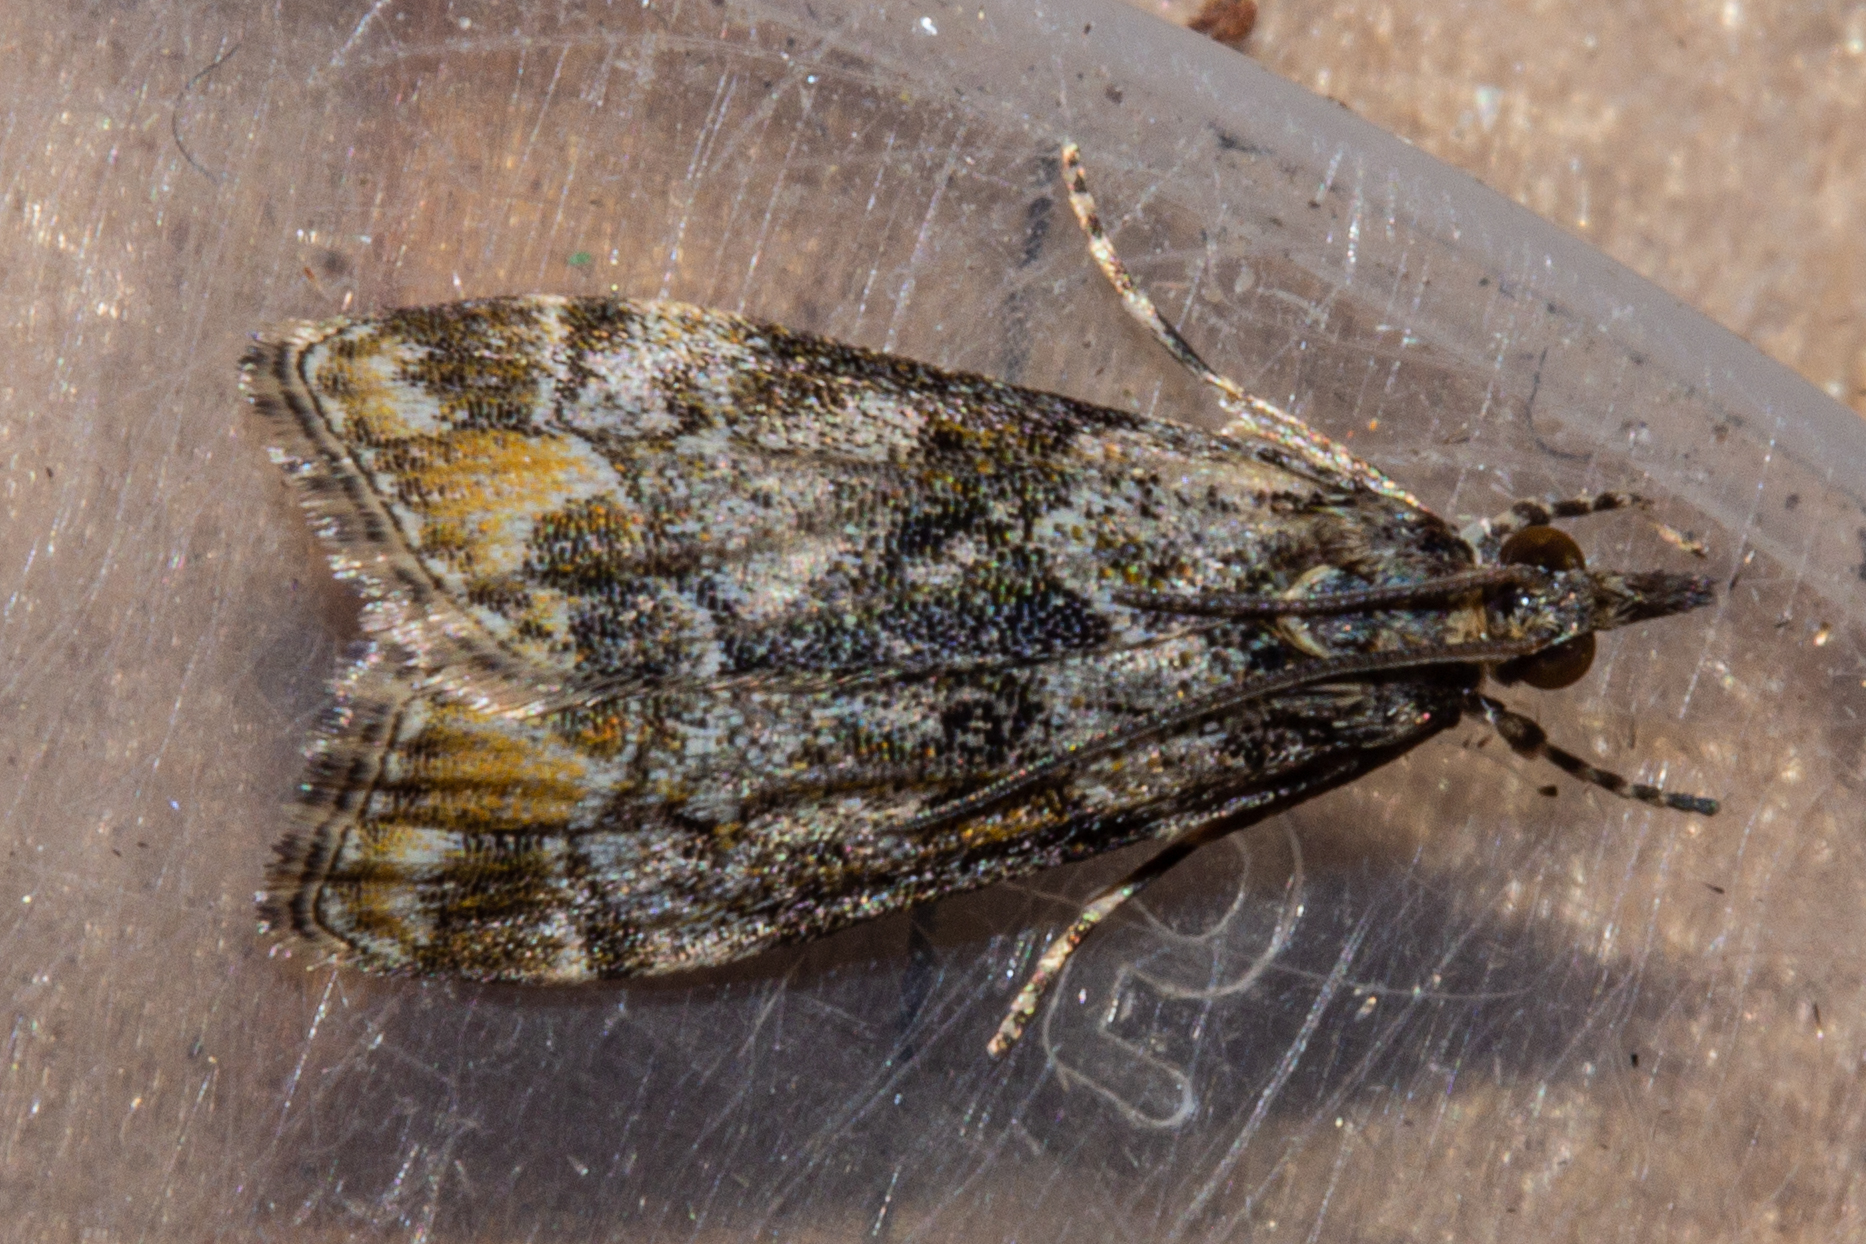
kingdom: Animalia
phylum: Arthropoda
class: Insecta
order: Lepidoptera
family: Crambidae
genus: Eudonia
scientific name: Eudonia minualis
